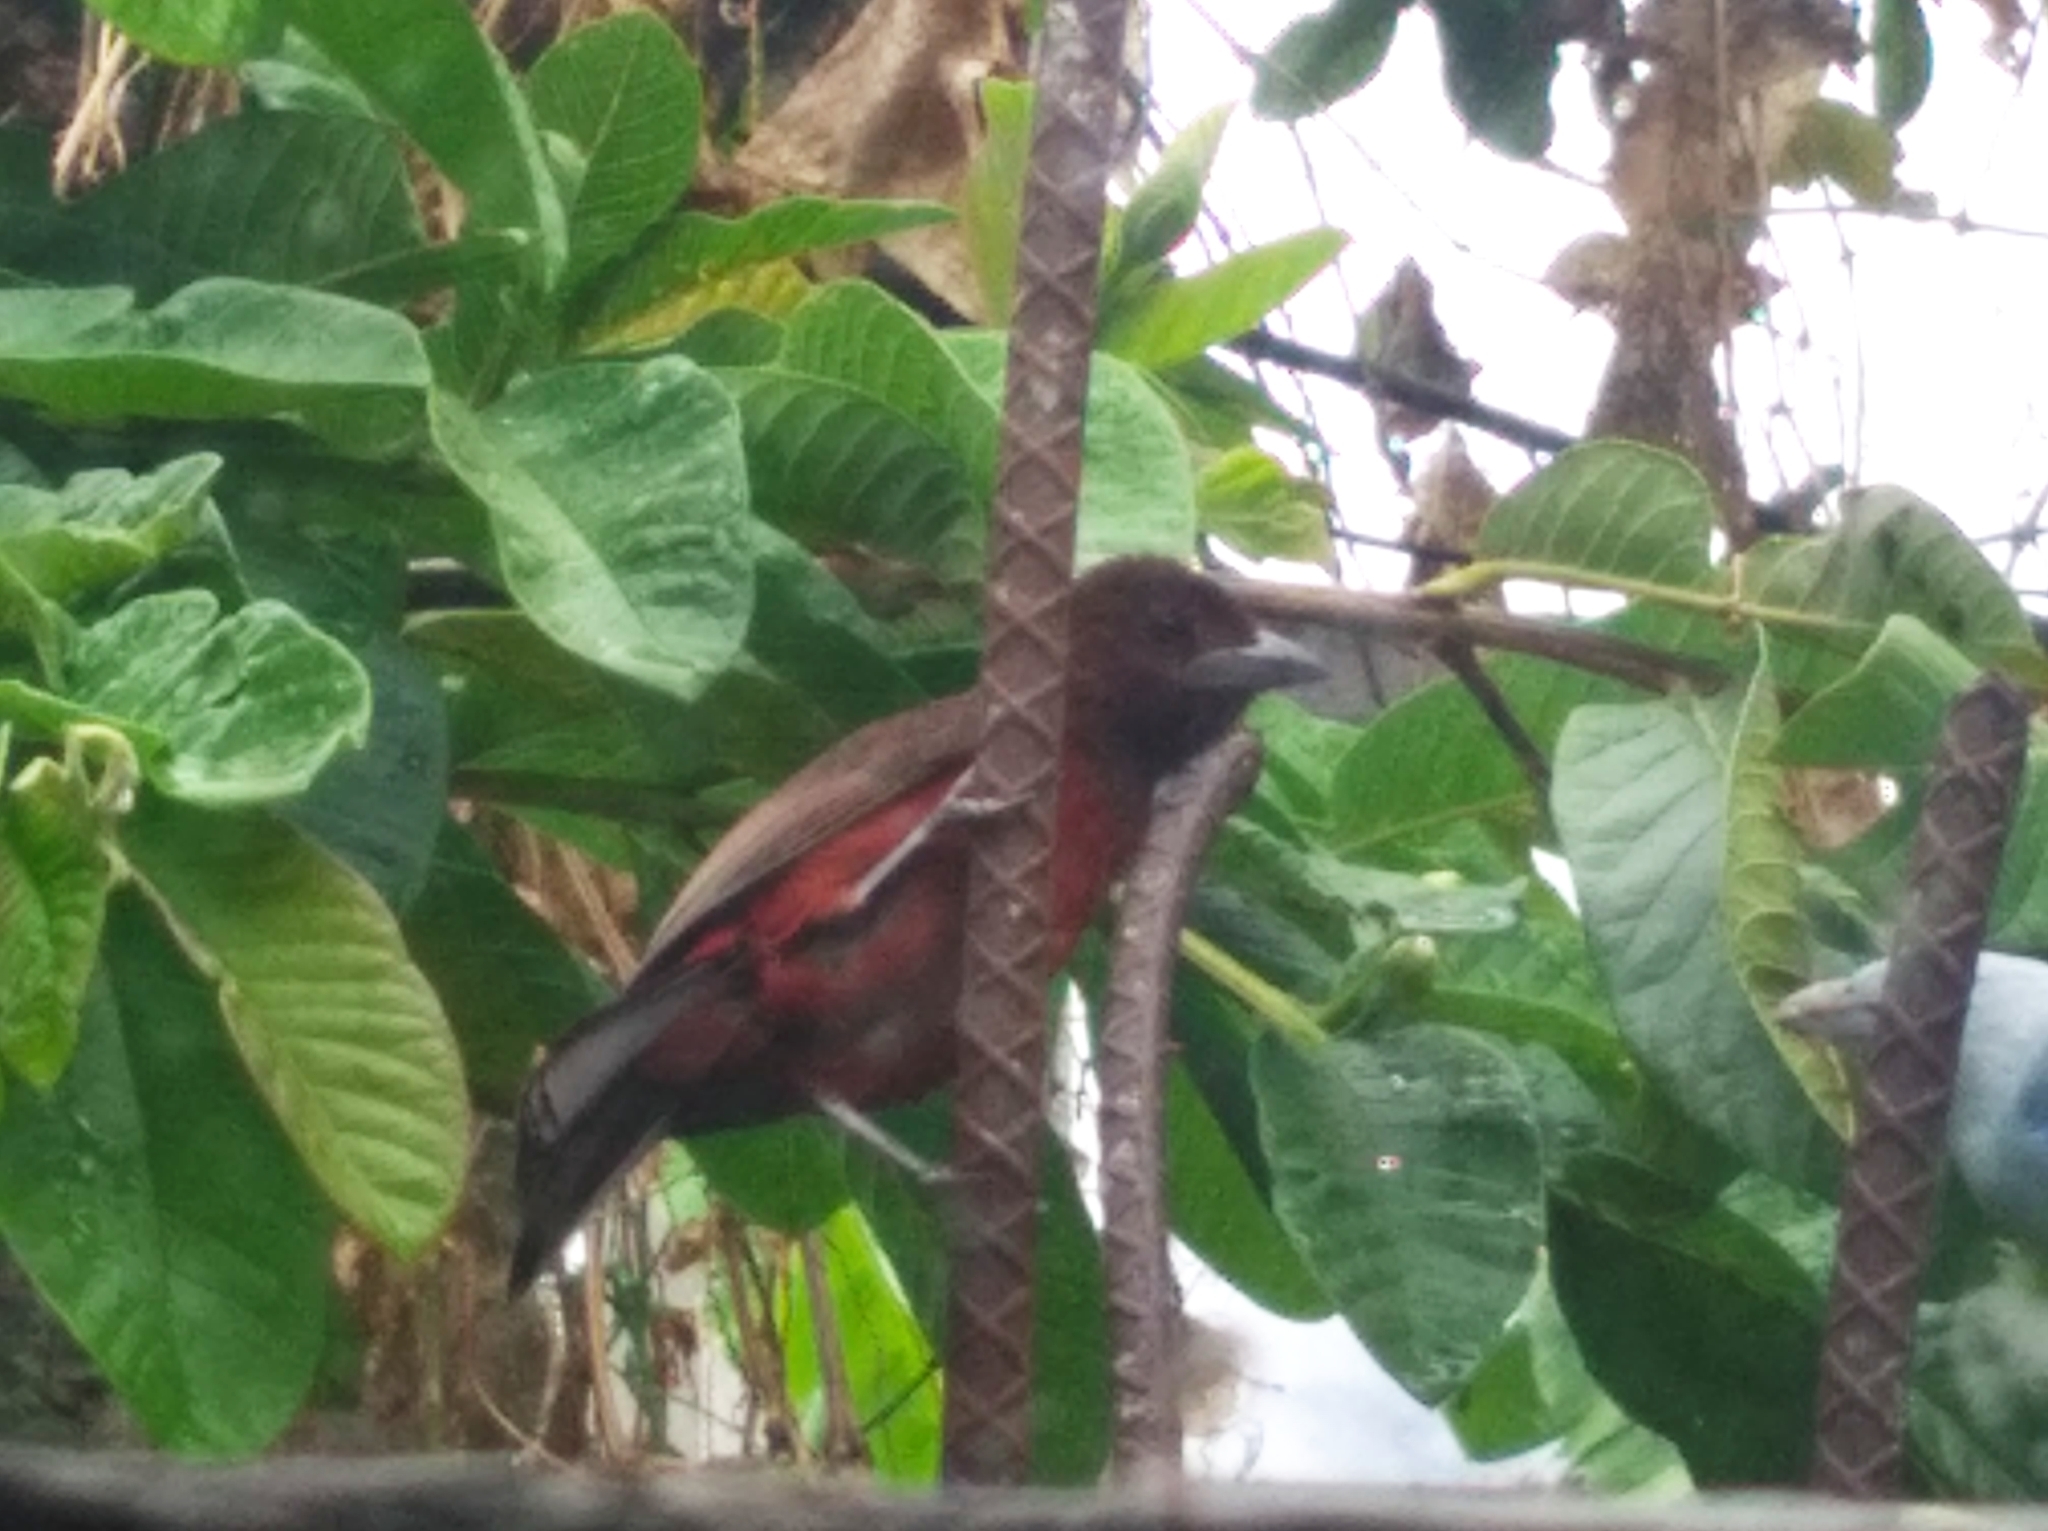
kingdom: Animalia
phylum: Chordata
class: Aves
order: Passeriformes
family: Thraupidae
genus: Ramphocelus
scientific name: Ramphocelus carbo
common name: Silver-beaked tanager
